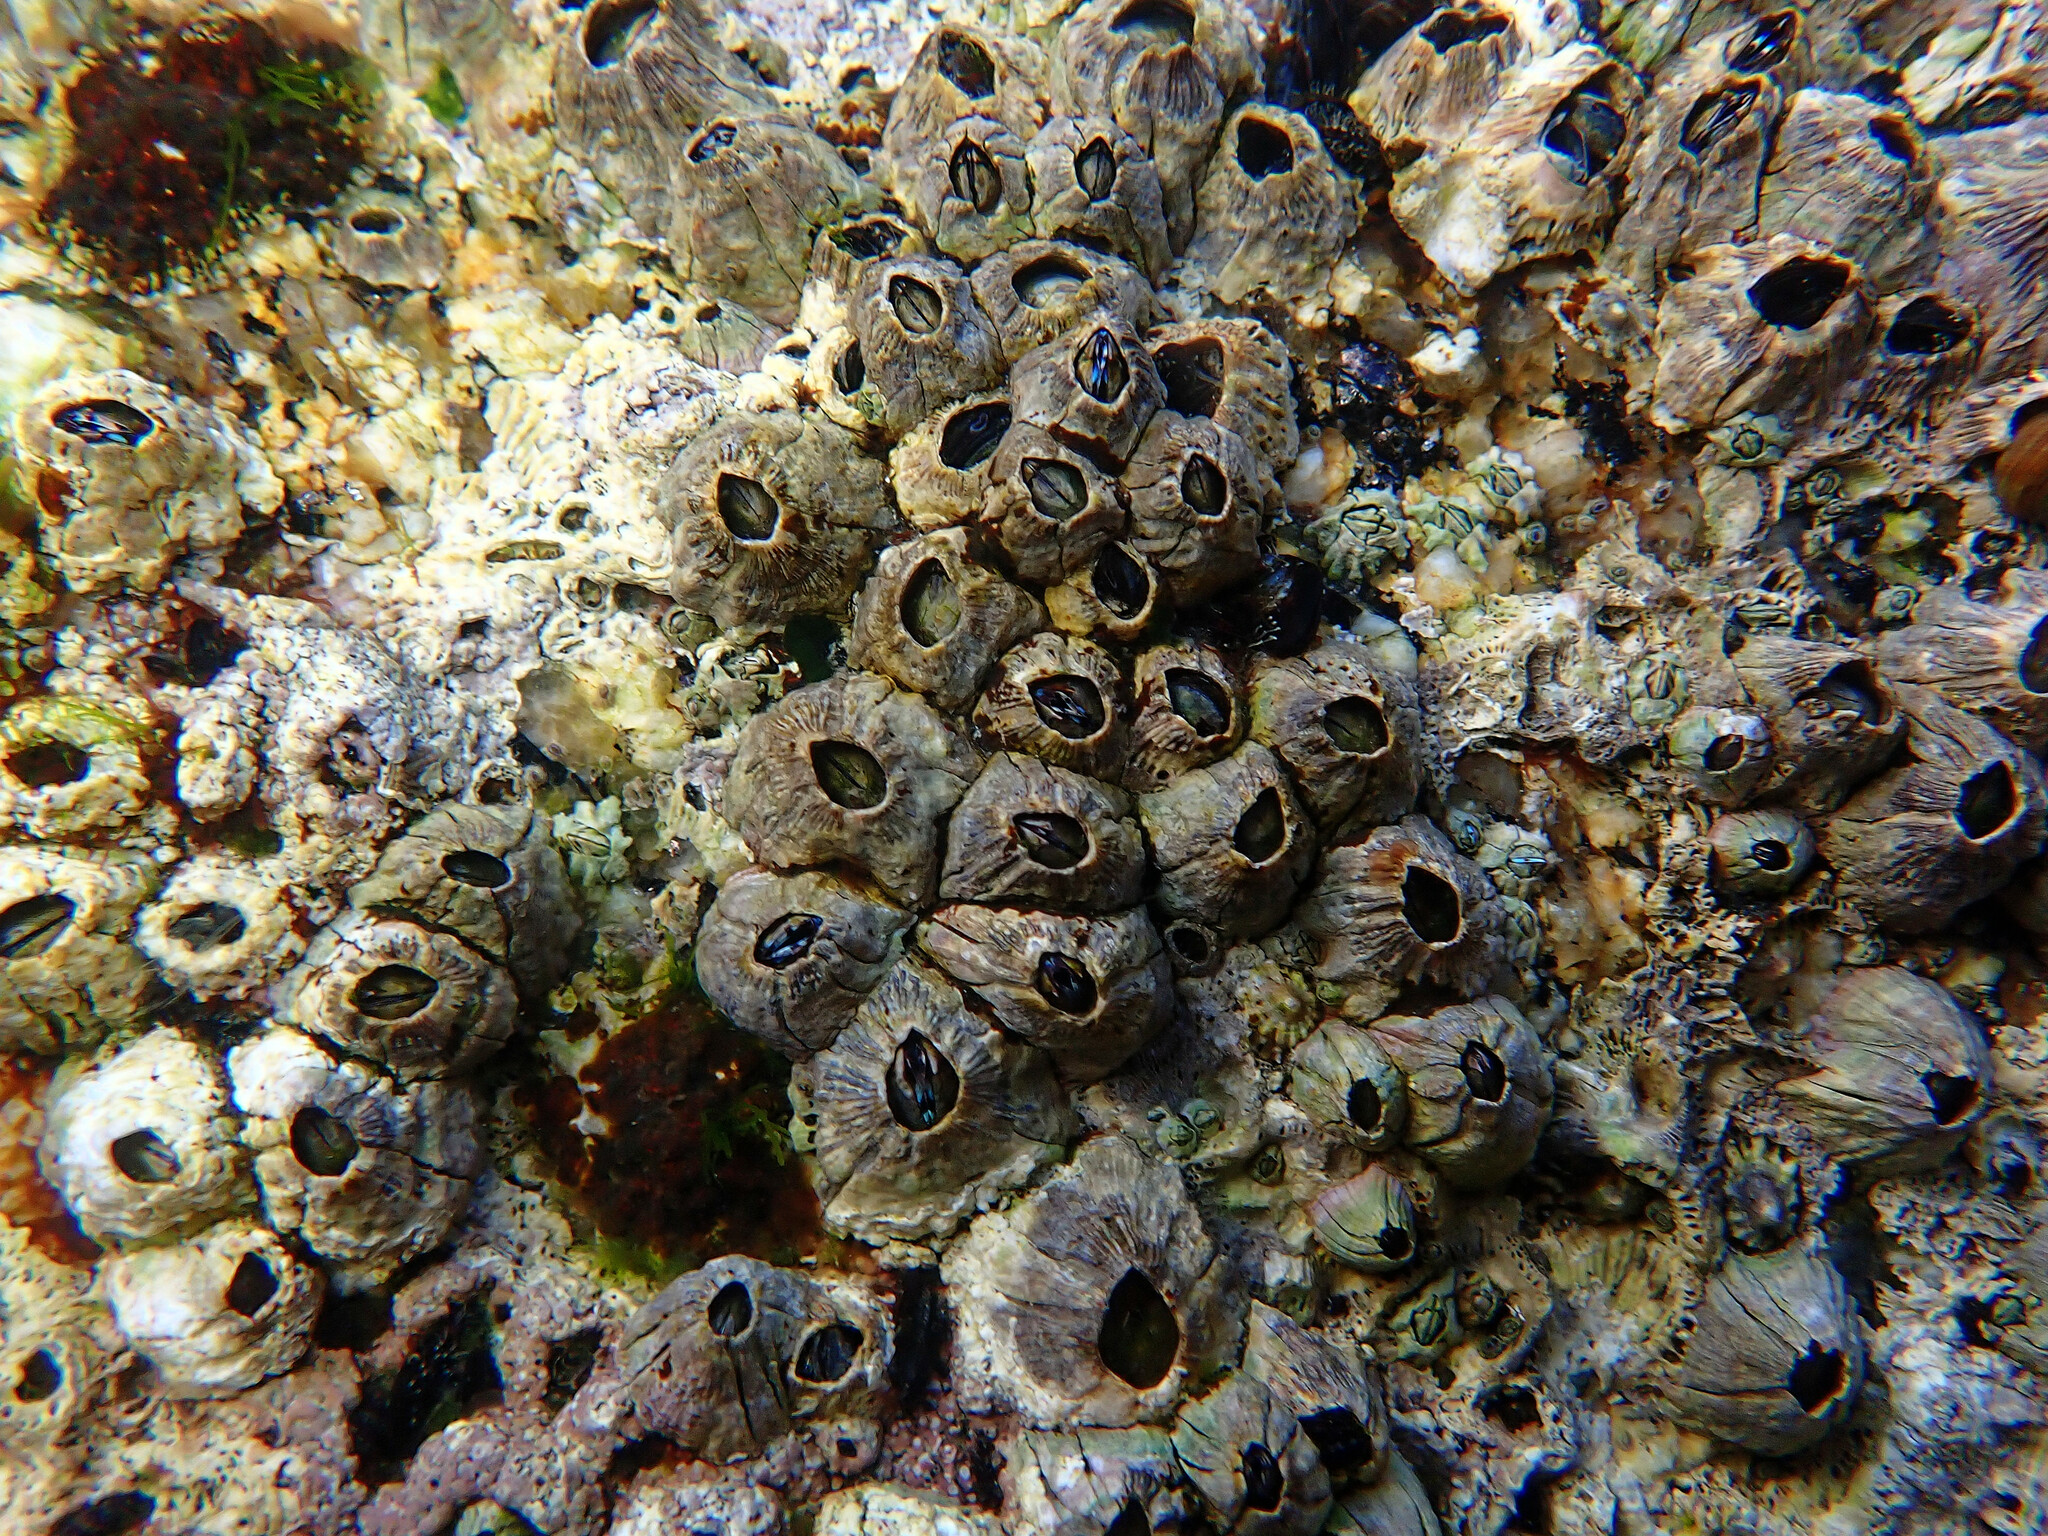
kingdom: Animalia
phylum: Arthropoda
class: Maxillopoda
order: Sessilia
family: Balanidae
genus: Perforatus
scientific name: Perforatus perforatus
